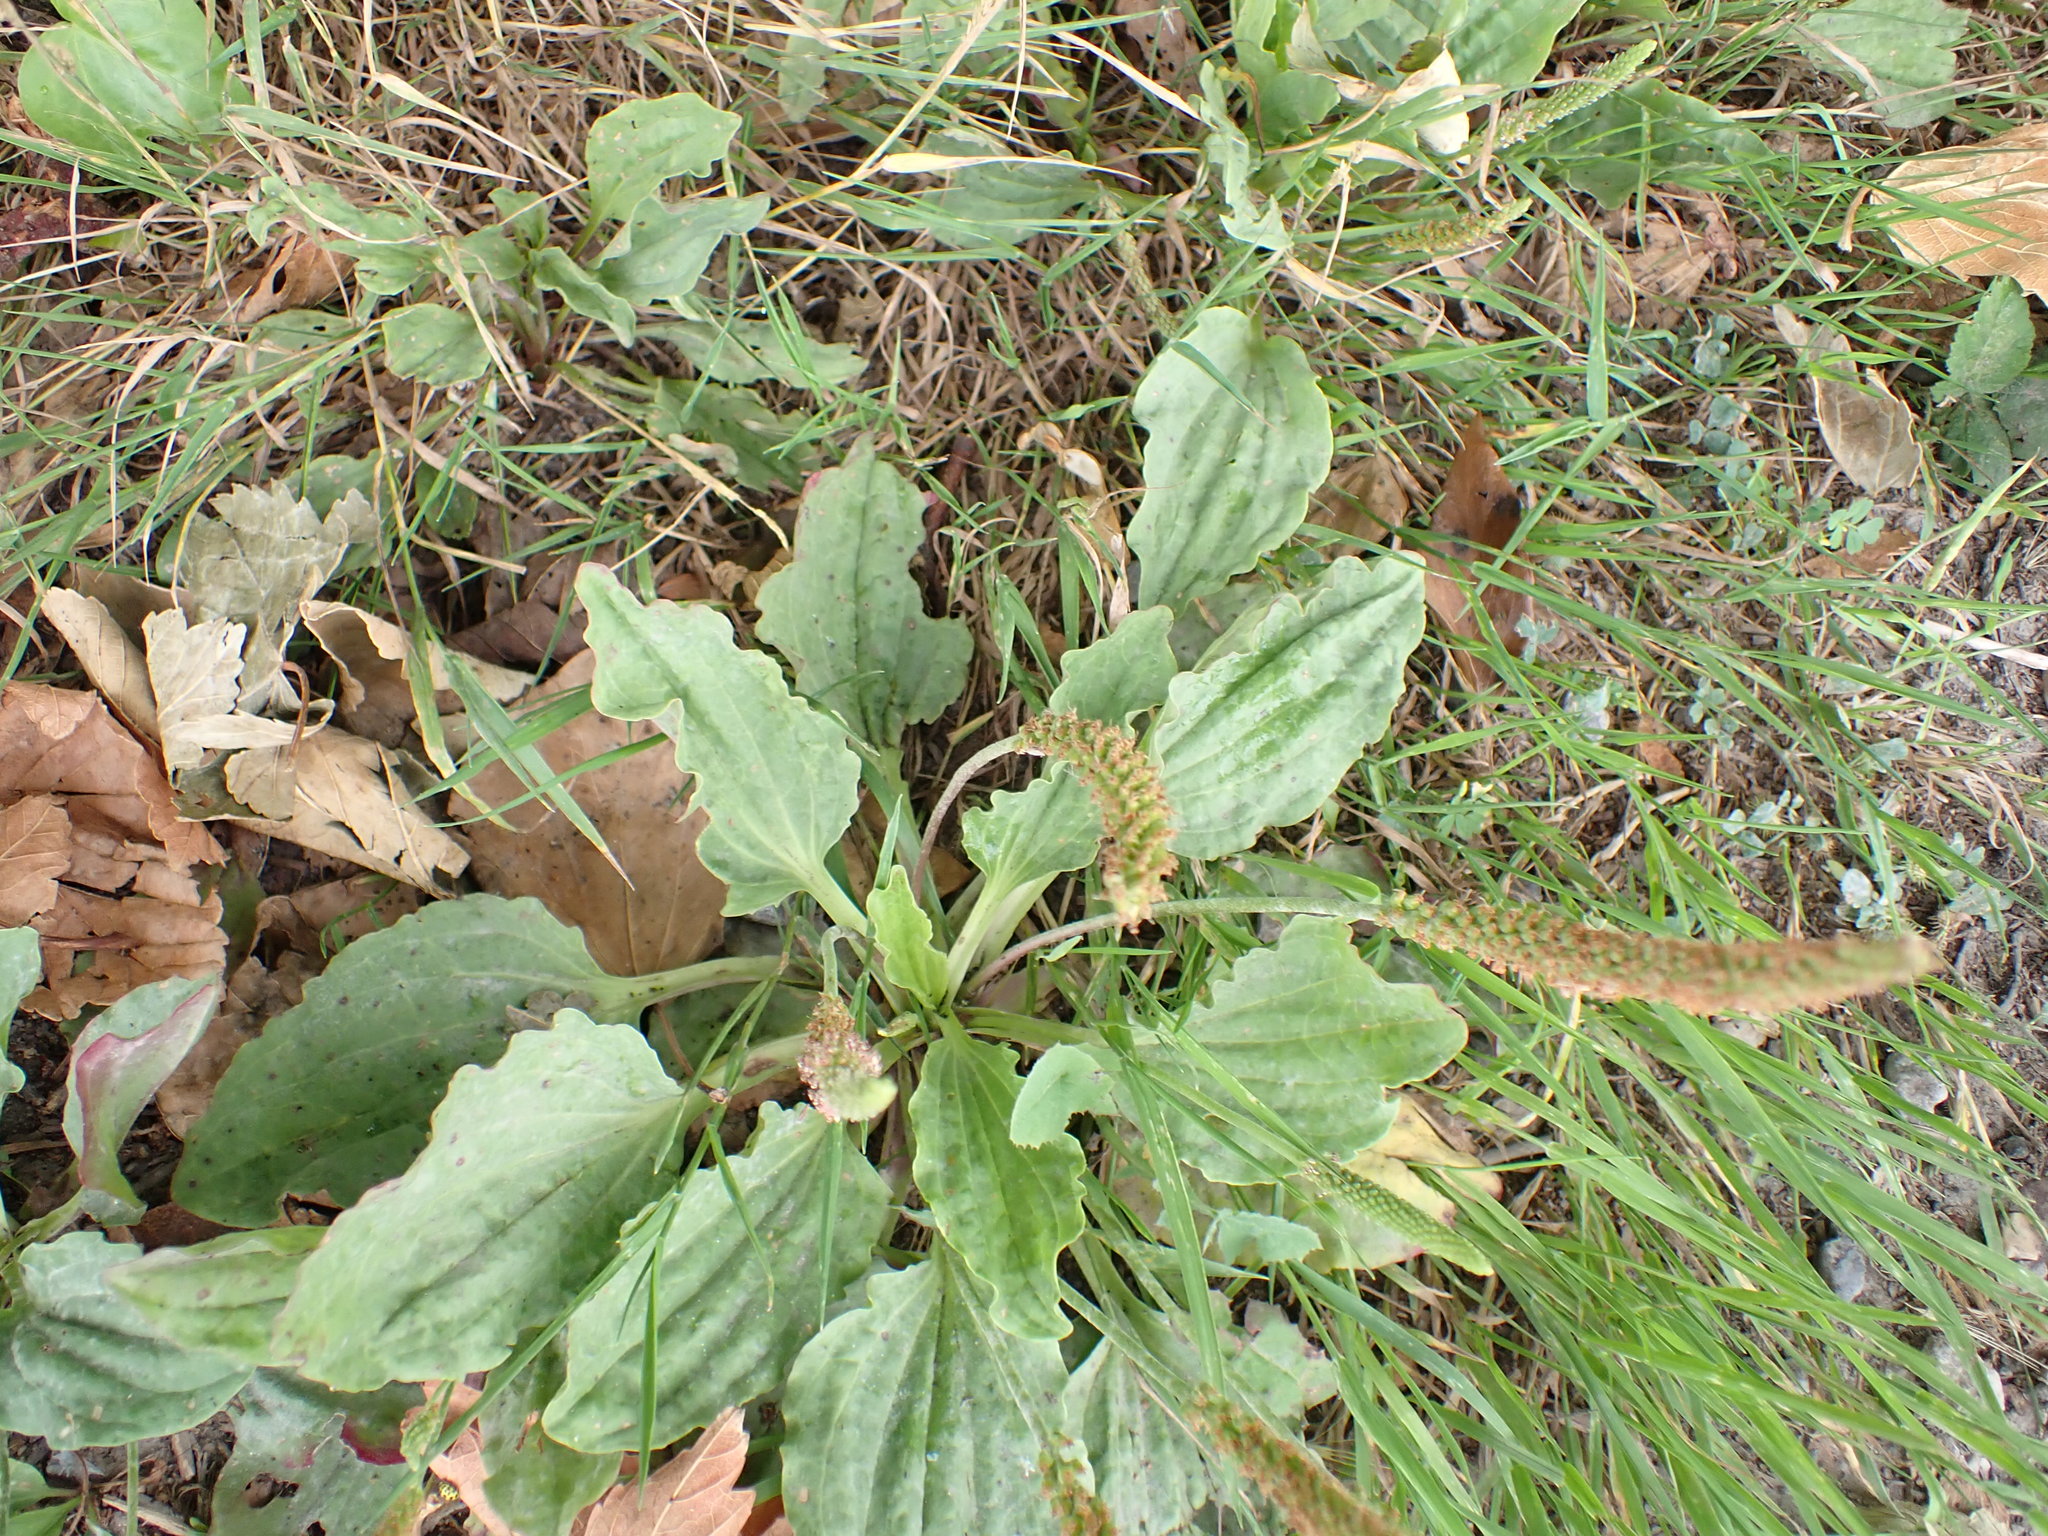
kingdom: Plantae
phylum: Tracheophyta
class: Magnoliopsida
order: Lamiales
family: Plantaginaceae
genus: Plantago
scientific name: Plantago major
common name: Common plantain
